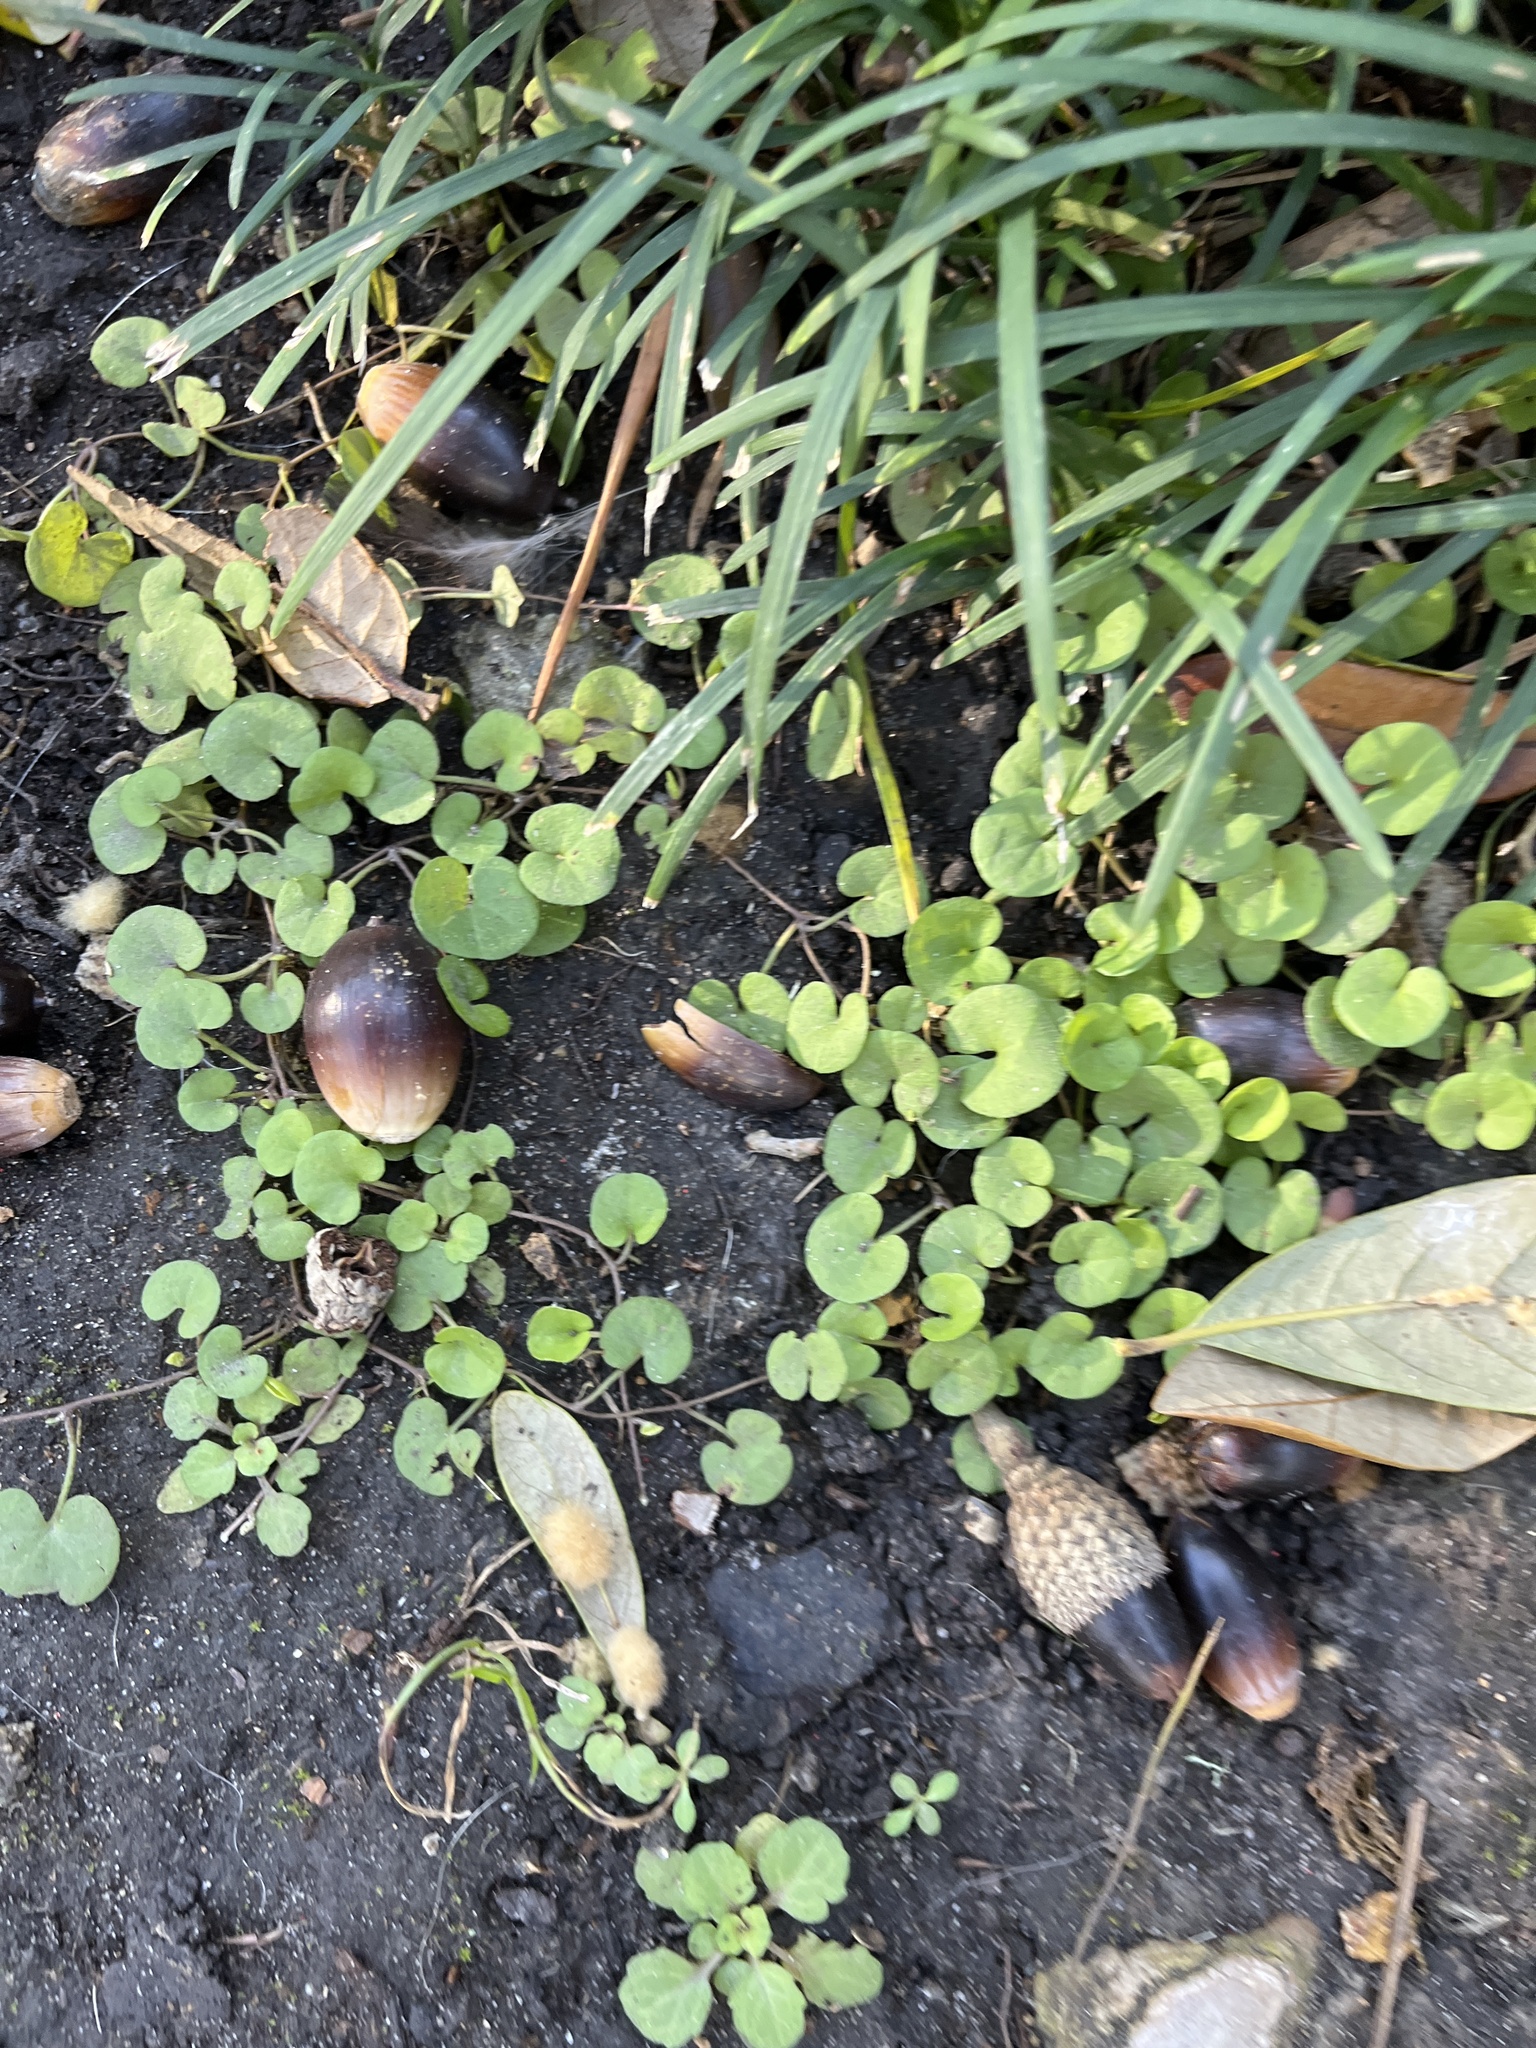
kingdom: Plantae
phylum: Tracheophyta
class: Magnoliopsida
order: Solanales
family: Convolvulaceae
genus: Dichondra
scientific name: Dichondra carolinensis
